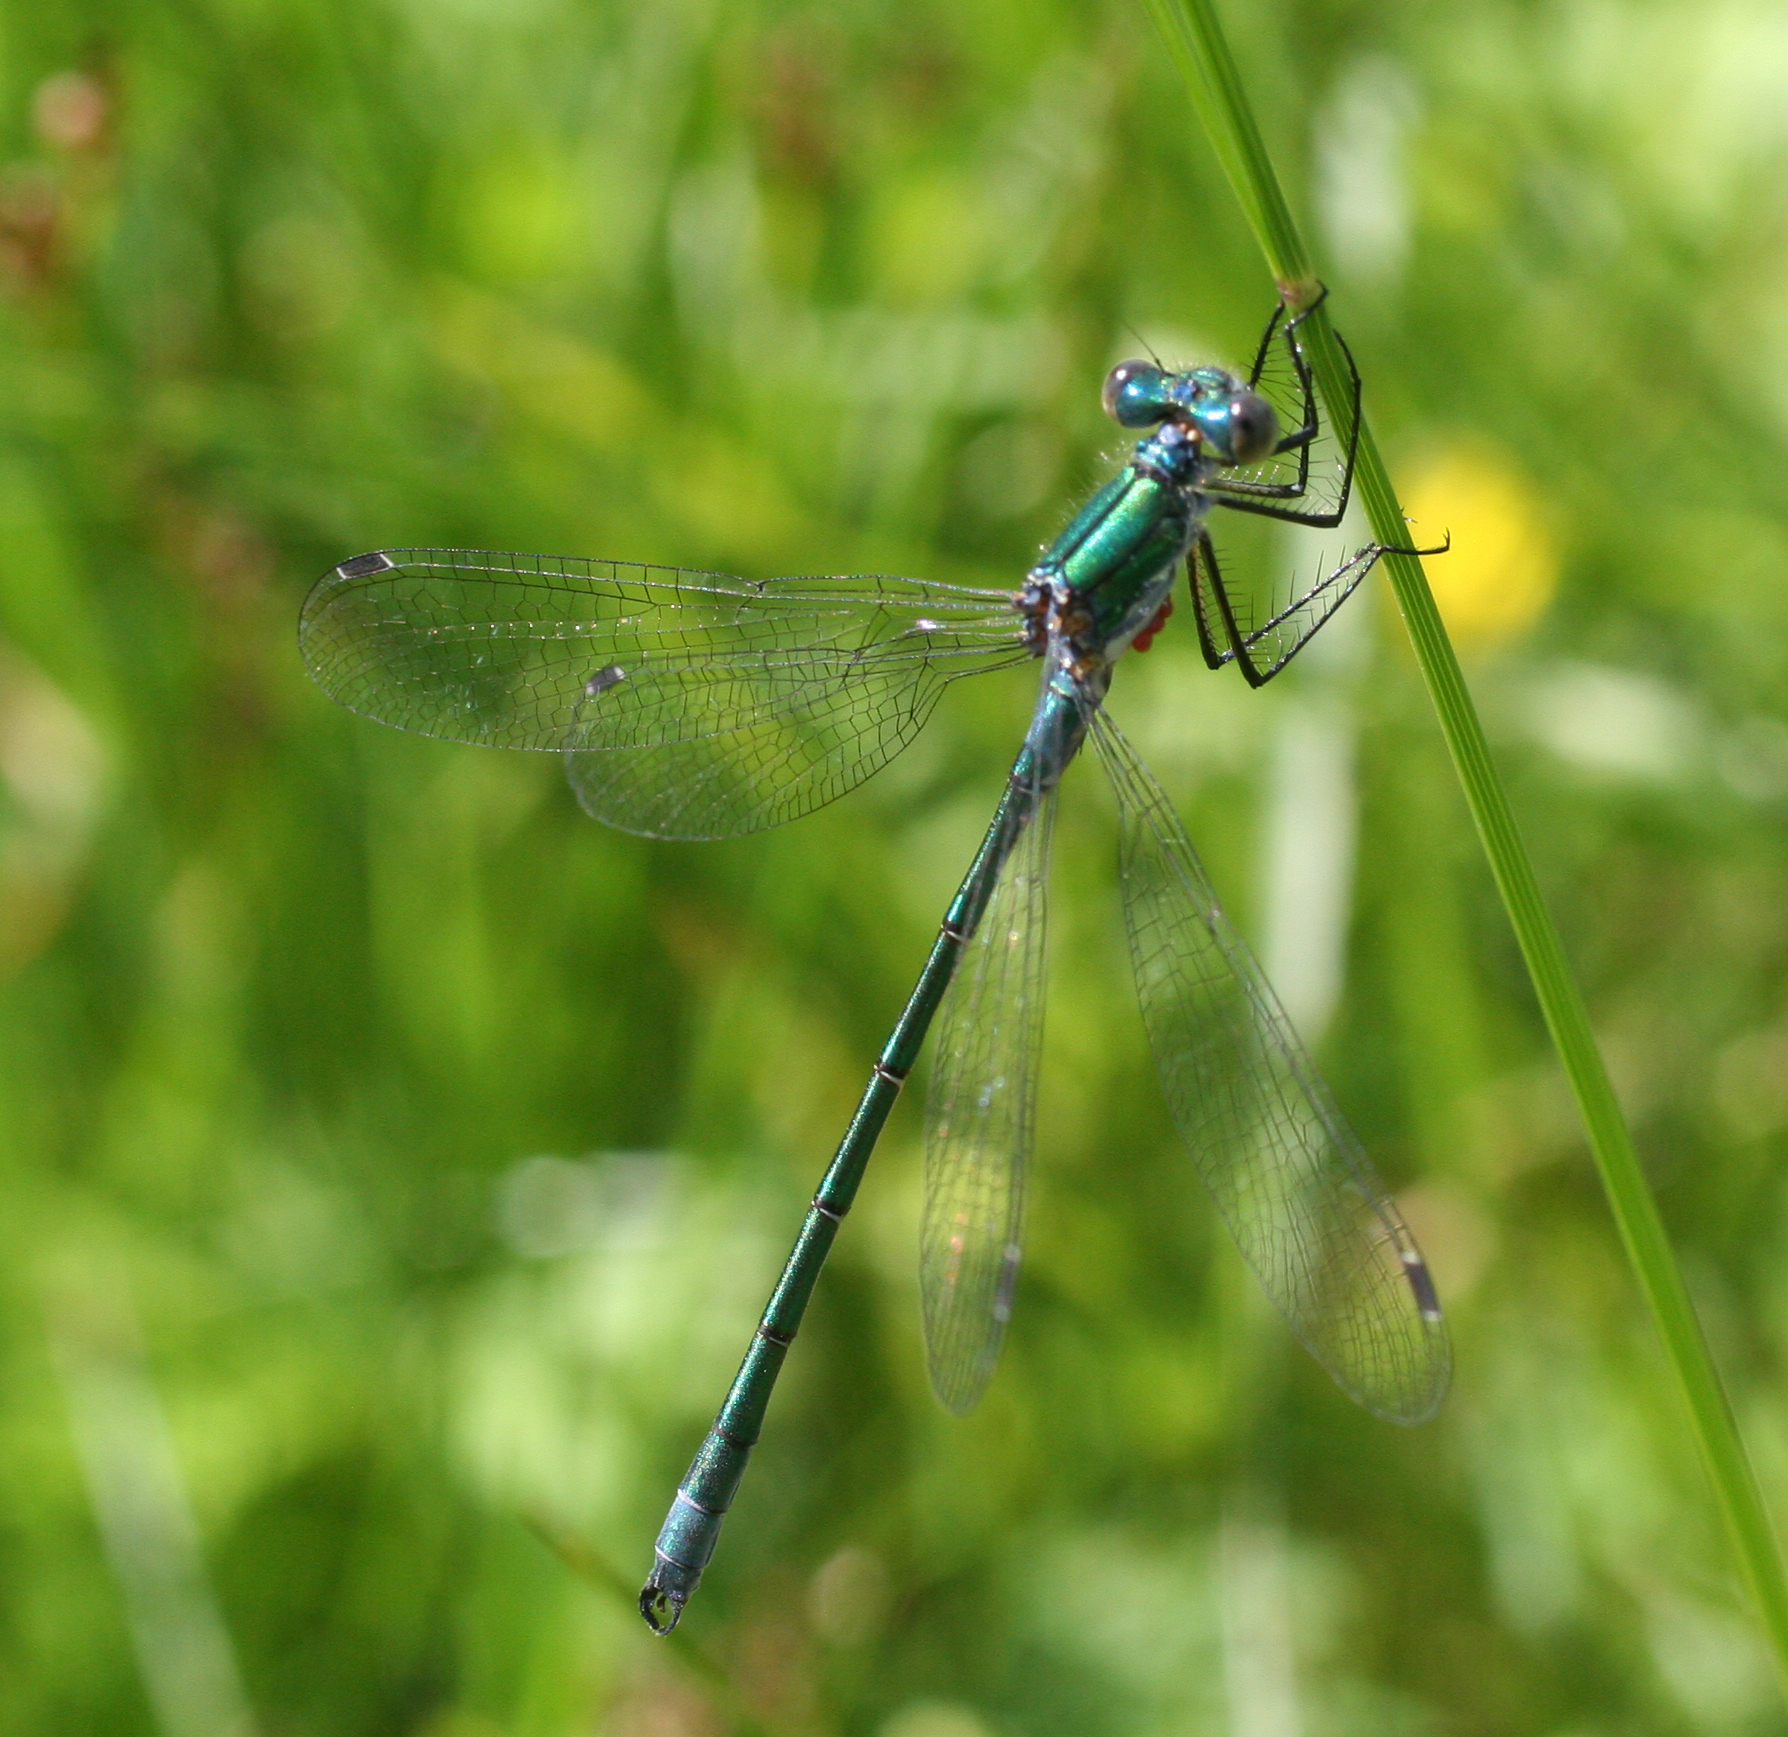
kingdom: Animalia
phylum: Arthropoda
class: Insecta
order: Odonata
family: Lestidae
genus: Lestes
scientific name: Lestes dryas
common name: Scarce emerald damselfly
